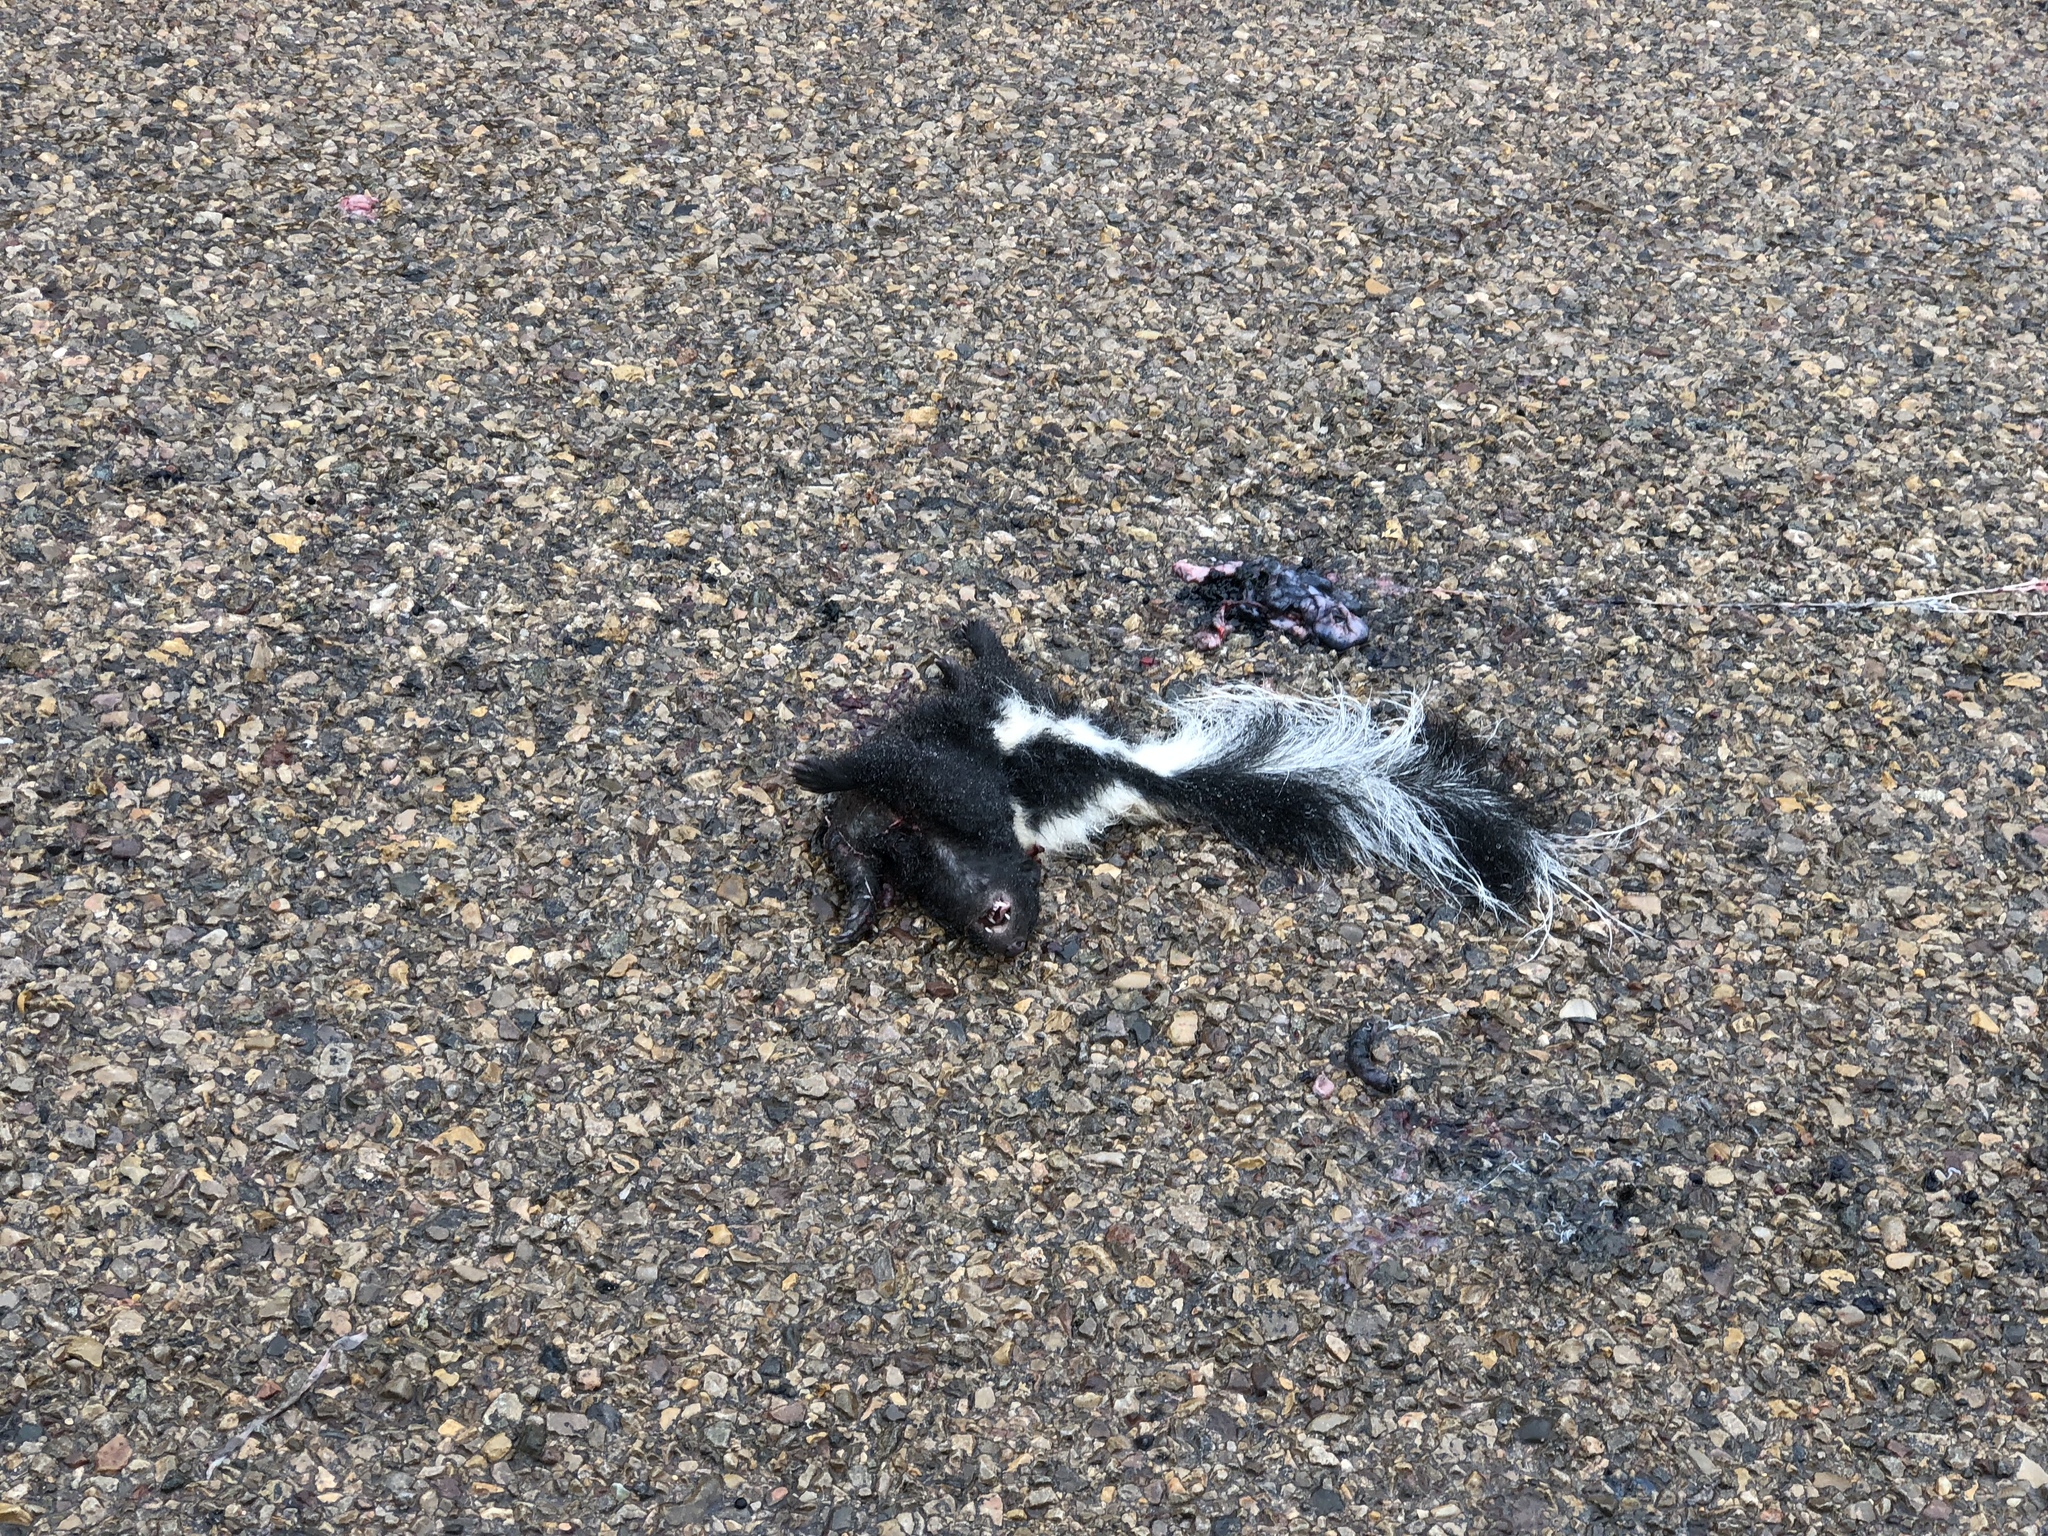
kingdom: Animalia
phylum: Chordata
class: Mammalia
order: Carnivora
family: Mephitidae
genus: Mephitis
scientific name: Mephitis mephitis
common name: Striped skunk
